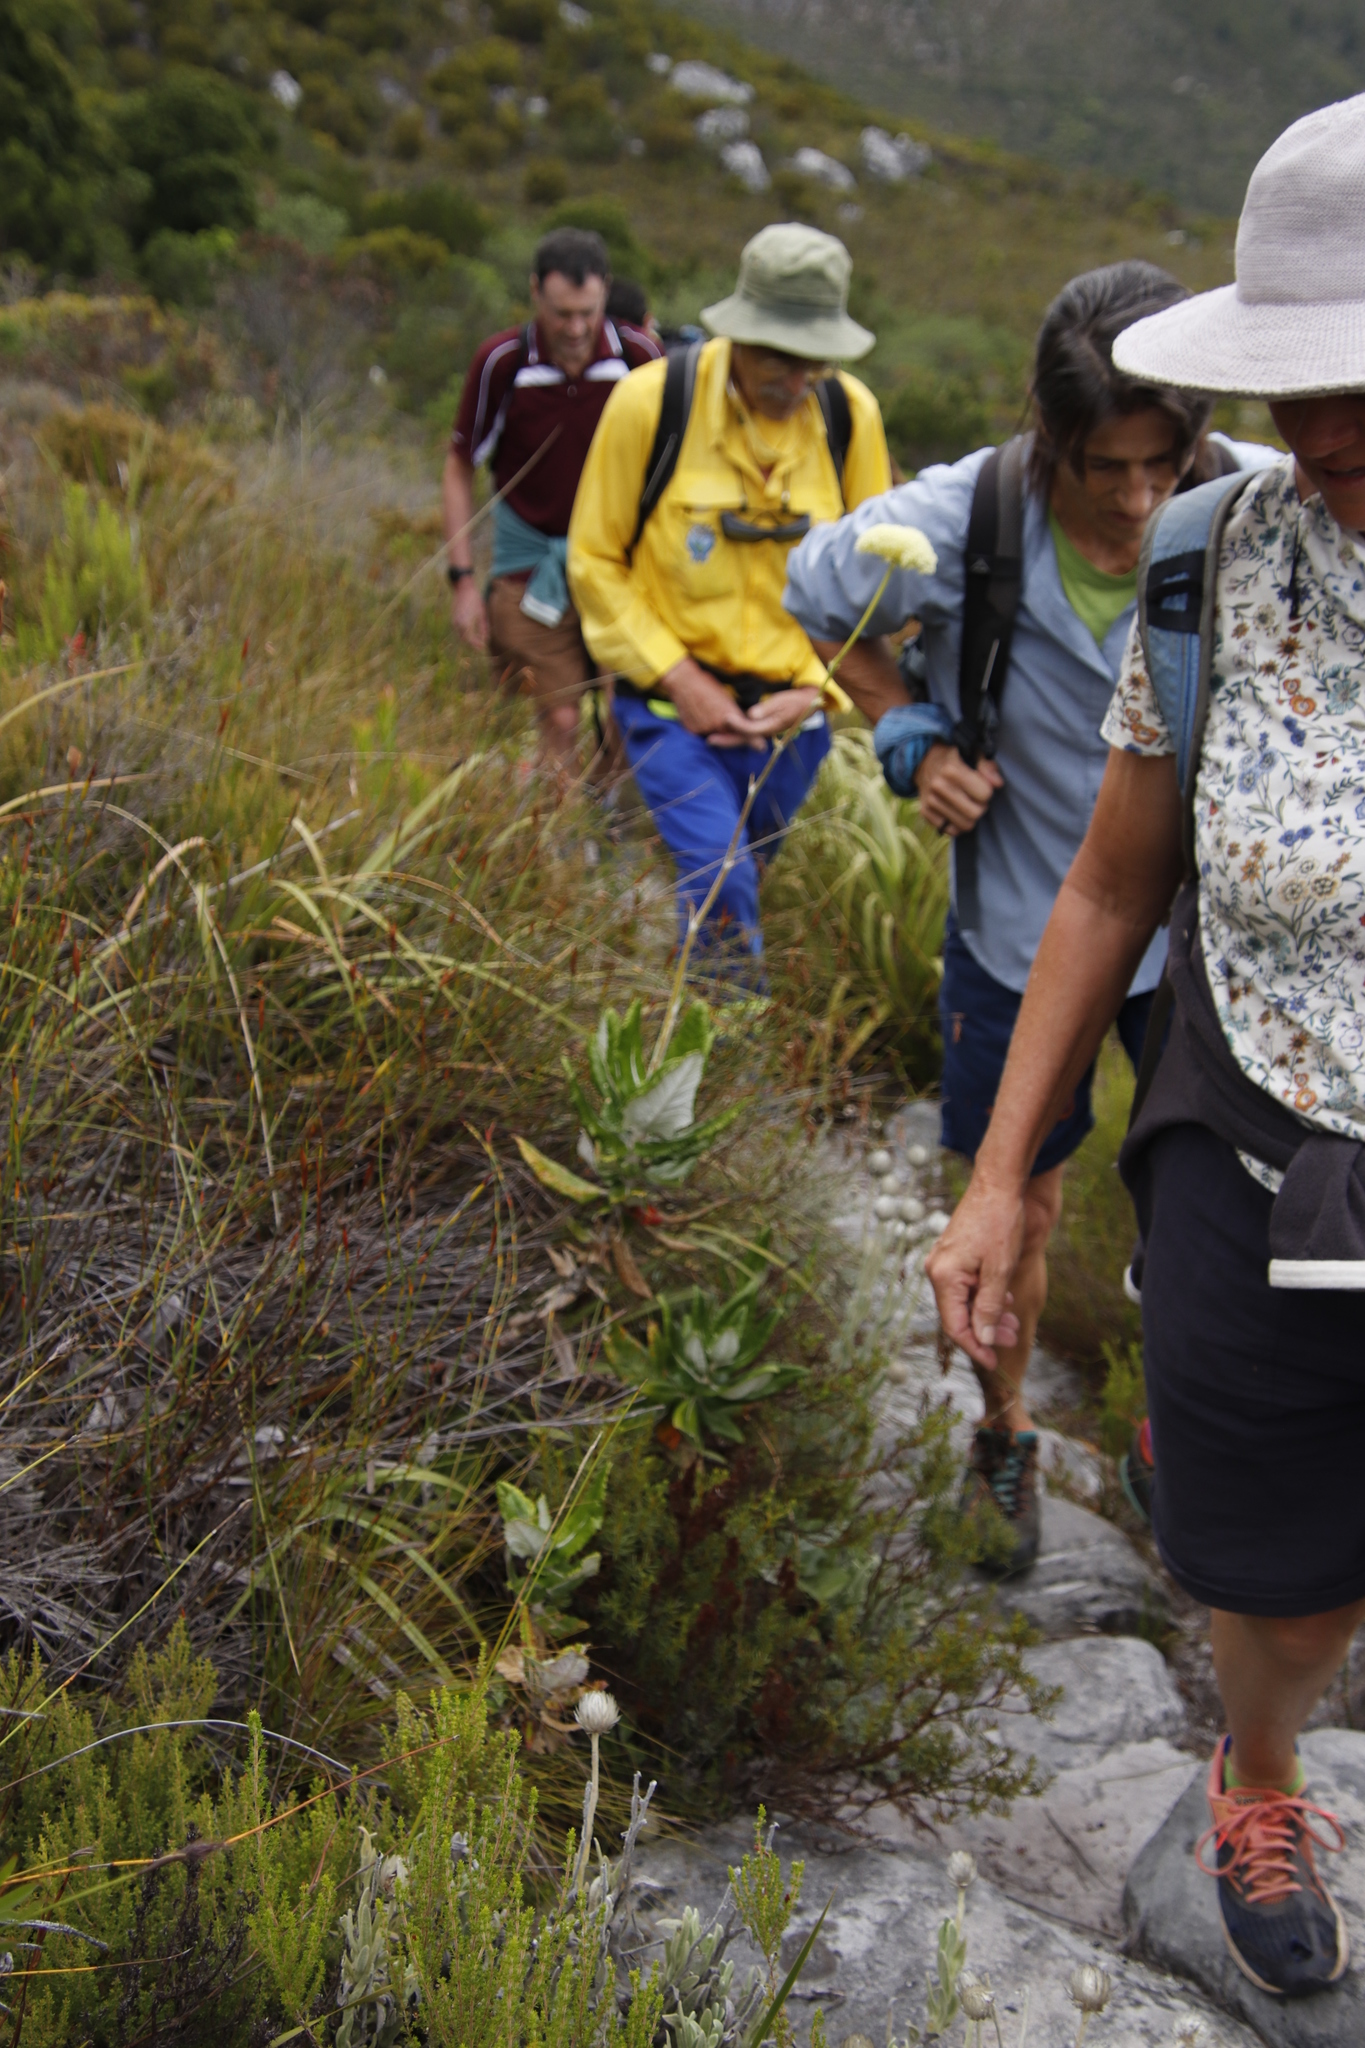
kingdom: Plantae
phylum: Tracheophyta
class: Magnoliopsida
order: Apiales
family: Apiaceae
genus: Hermas
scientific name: Hermas villosa
